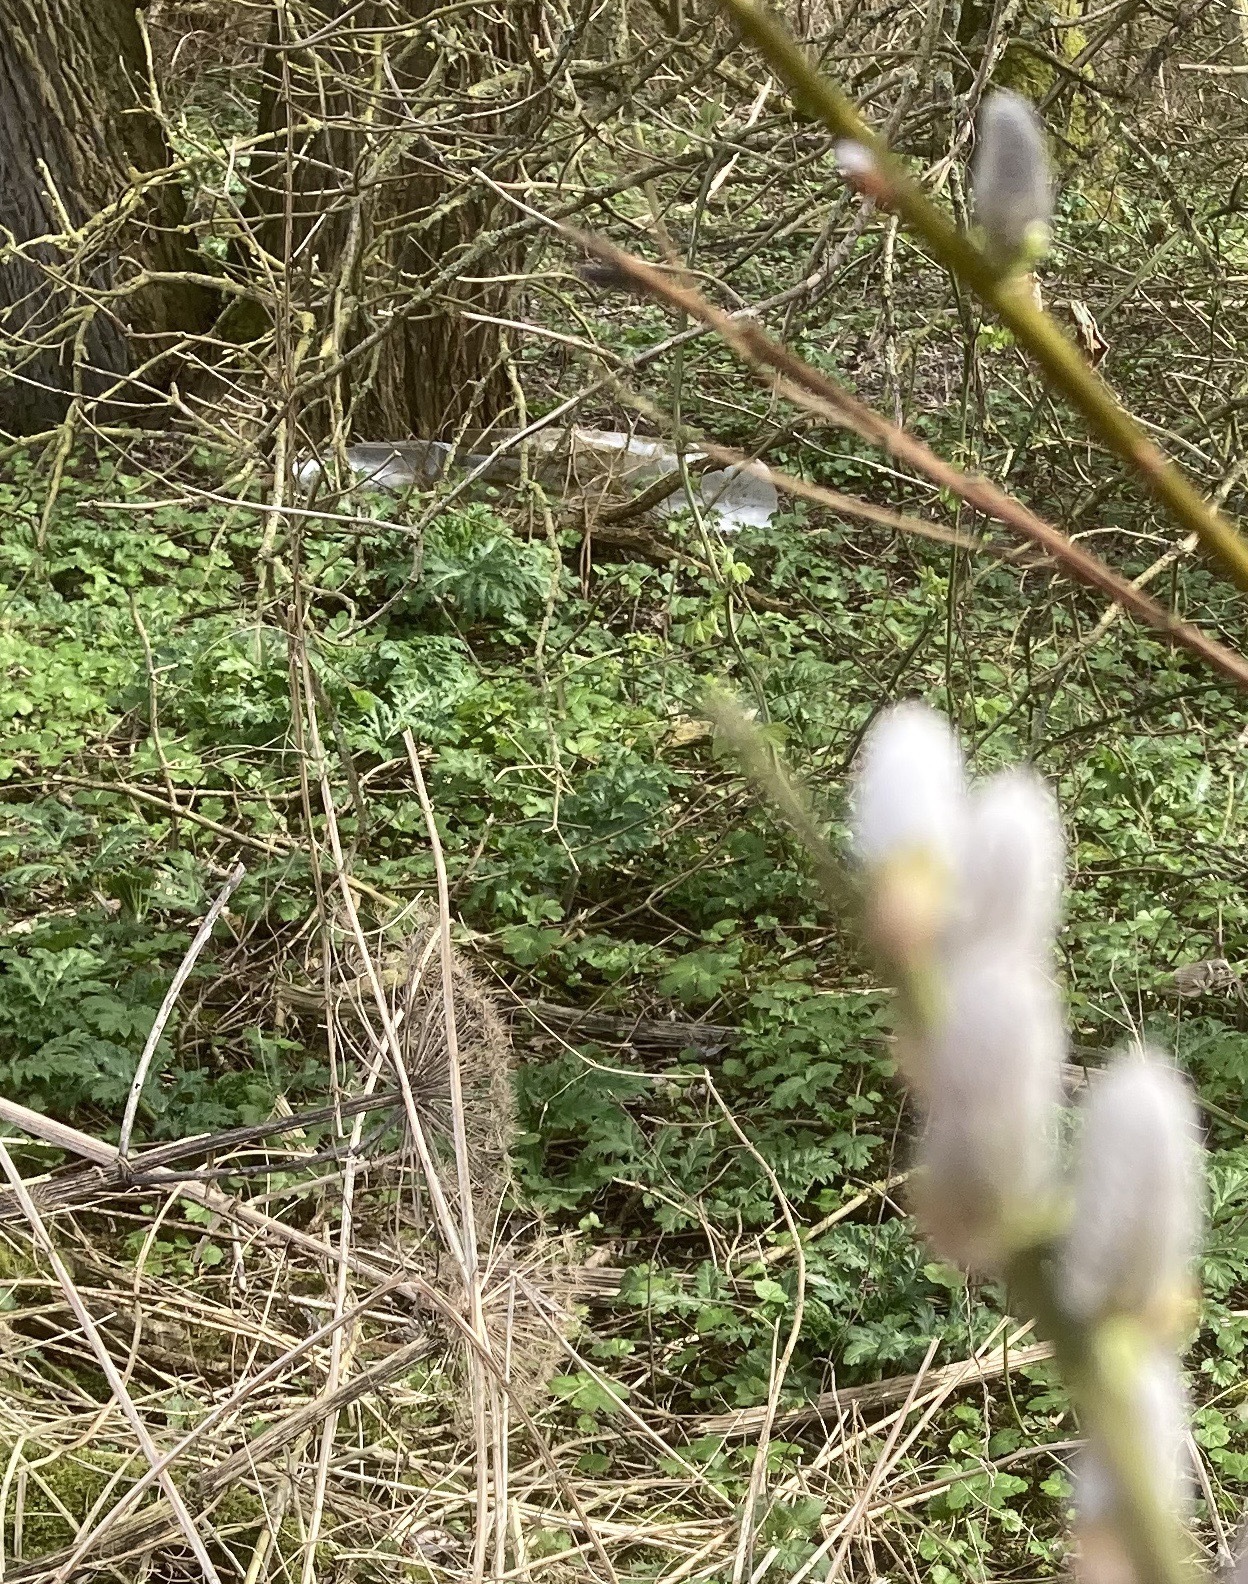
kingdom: Plantae
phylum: Tracheophyta
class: Magnoliopsida
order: Apiales
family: Apiaceae
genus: Heracleum
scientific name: Heracleum mantegazzianum
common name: Giant hogweed
